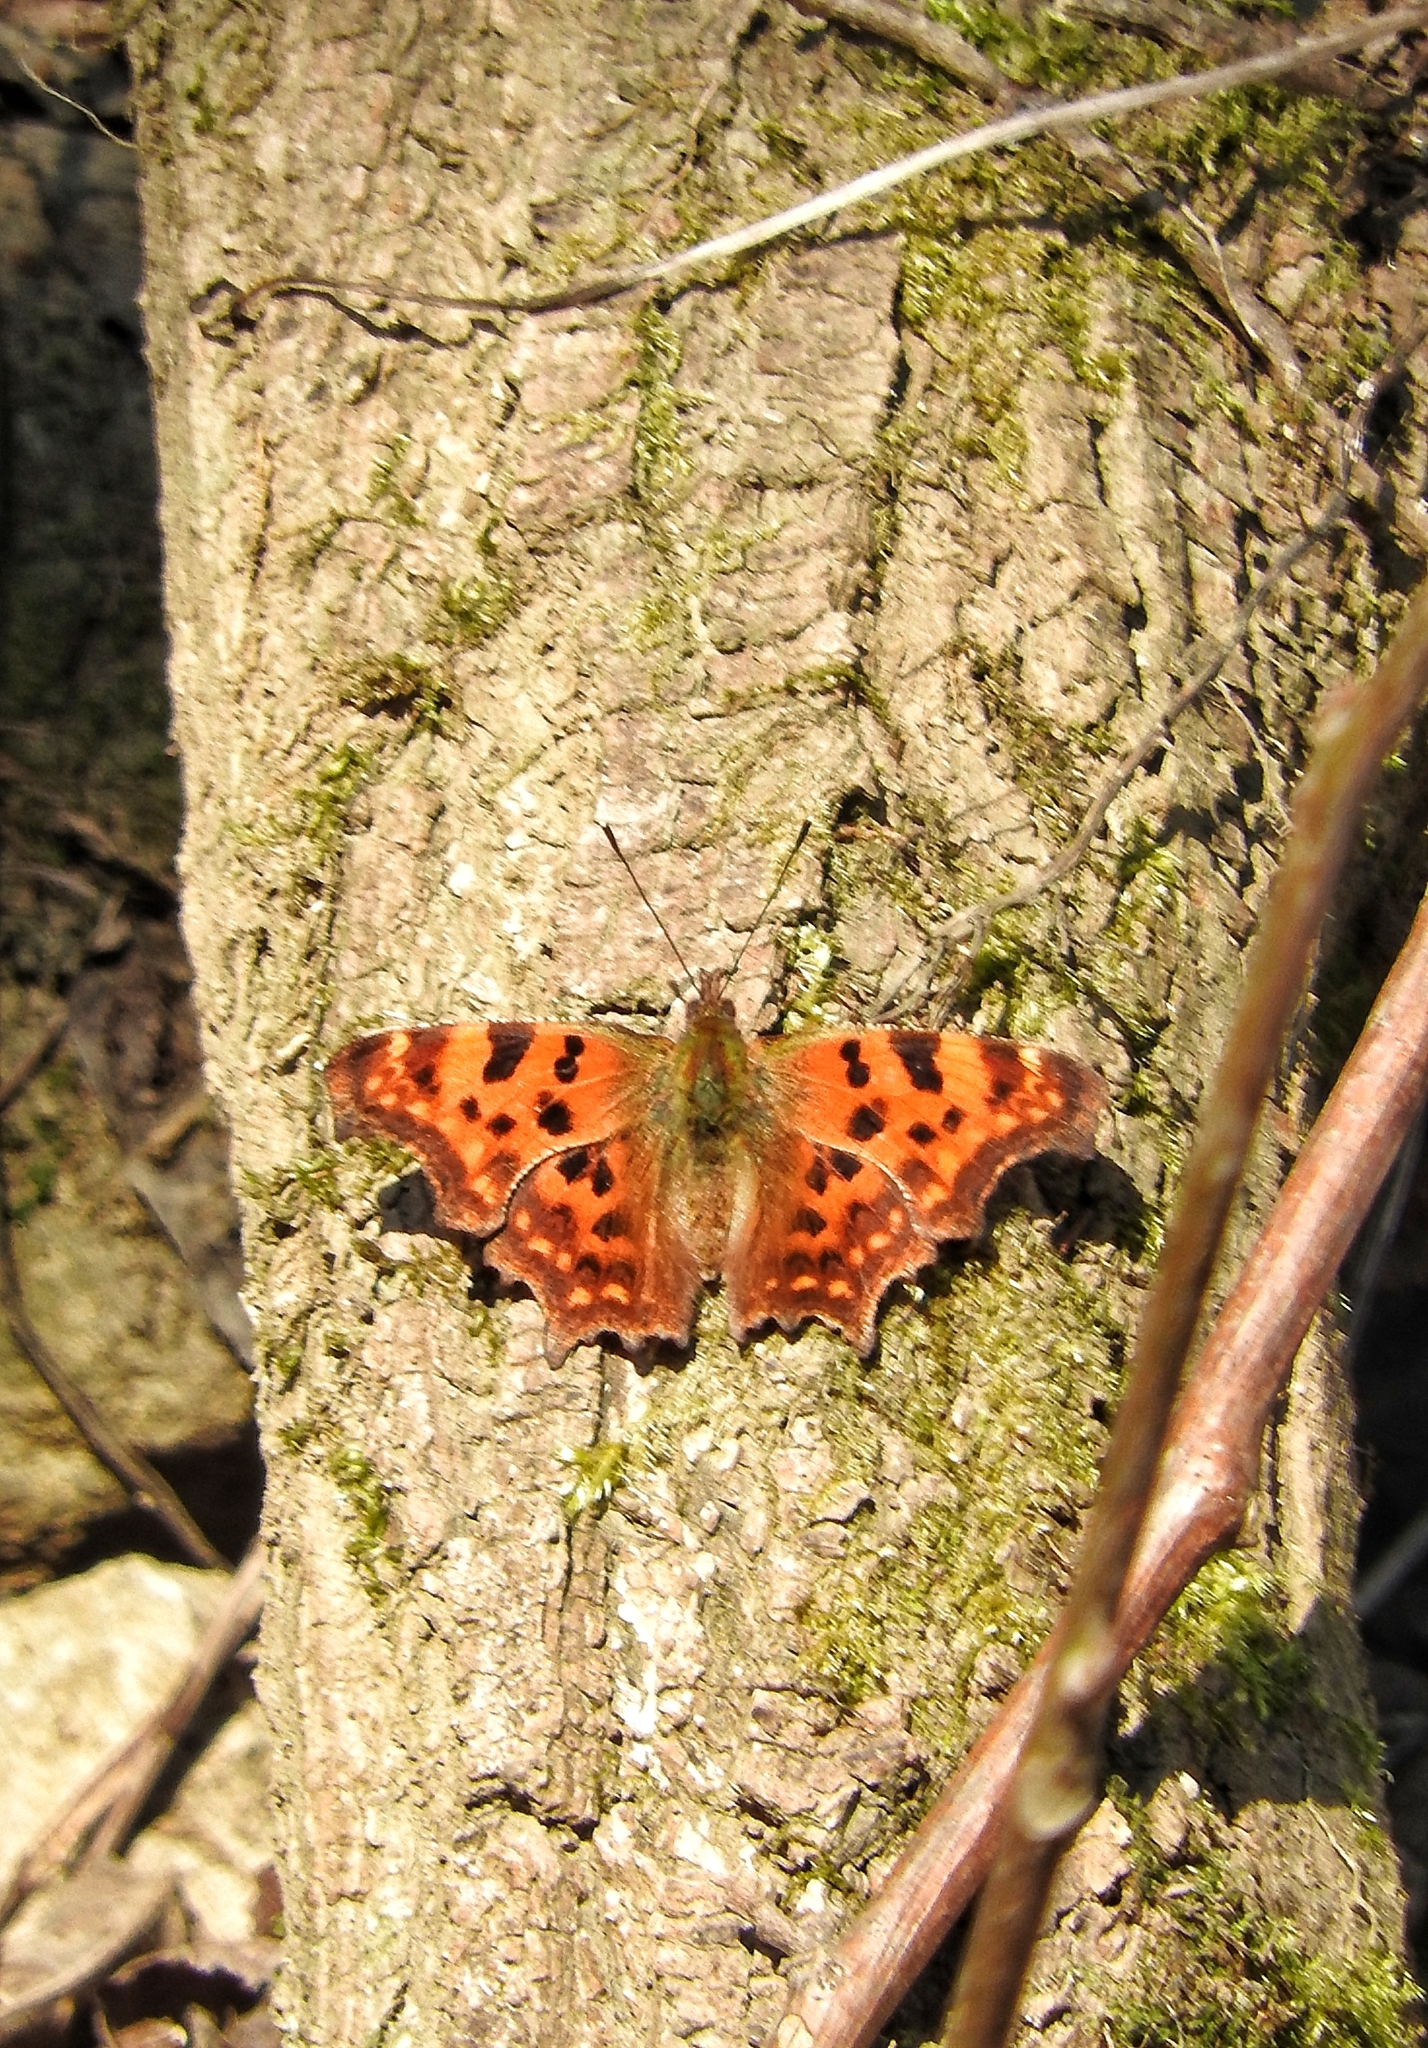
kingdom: Animalia
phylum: Arthropoda
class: Insecta
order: Lepidoptera
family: Nymphalidae
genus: Polygonia
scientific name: Polygonia c-album
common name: Comma
